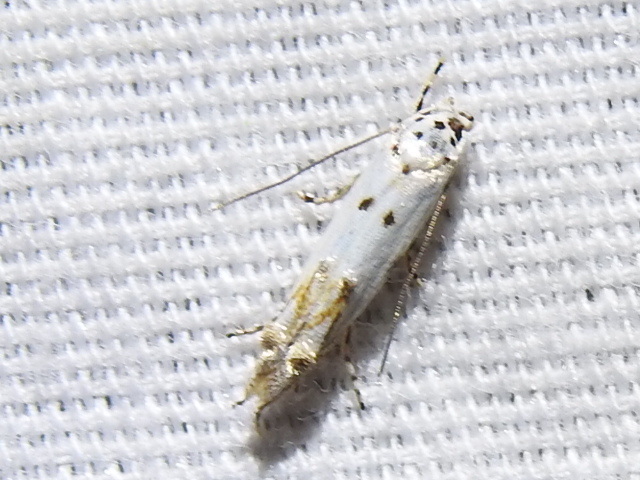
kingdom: Animalia
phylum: Arthropoda
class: Insecta
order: Lepidoptera
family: Momphidae
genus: Mompha
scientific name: Mompha eloisella
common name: Red-streaked mompha moth
